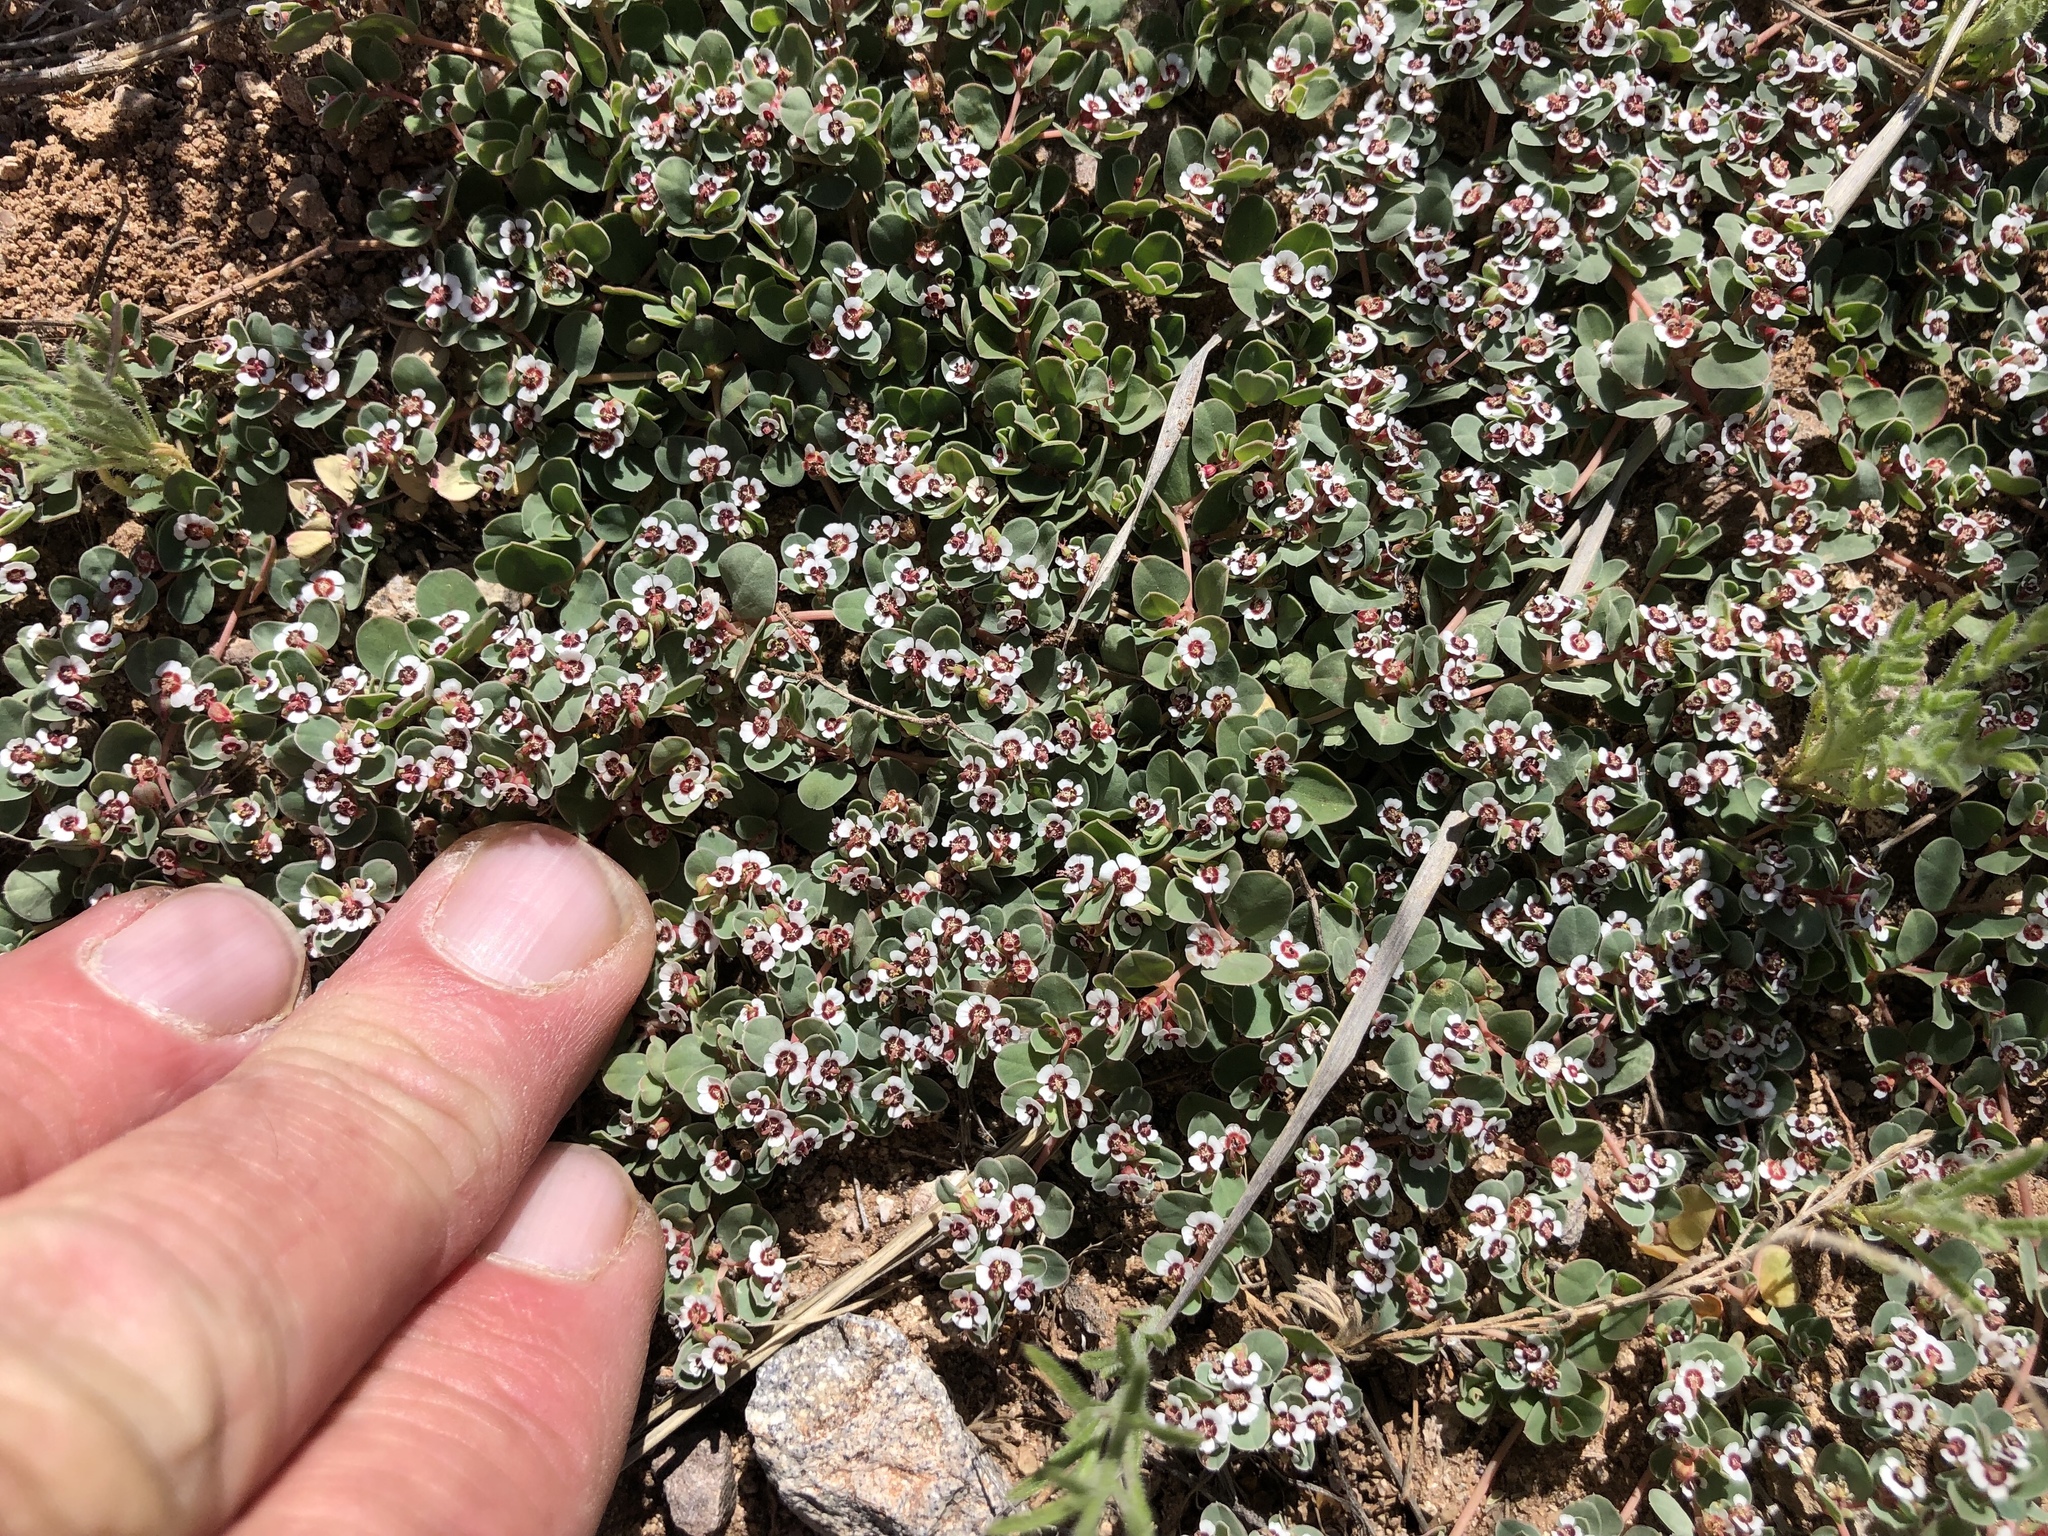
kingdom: Plantae
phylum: Tracheophyta
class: Magnoliopsida
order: Malpighiales
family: Euphorbiaceae
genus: Euphorbia
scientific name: Euphorbia albomarginata
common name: Whitemargin sandmat
